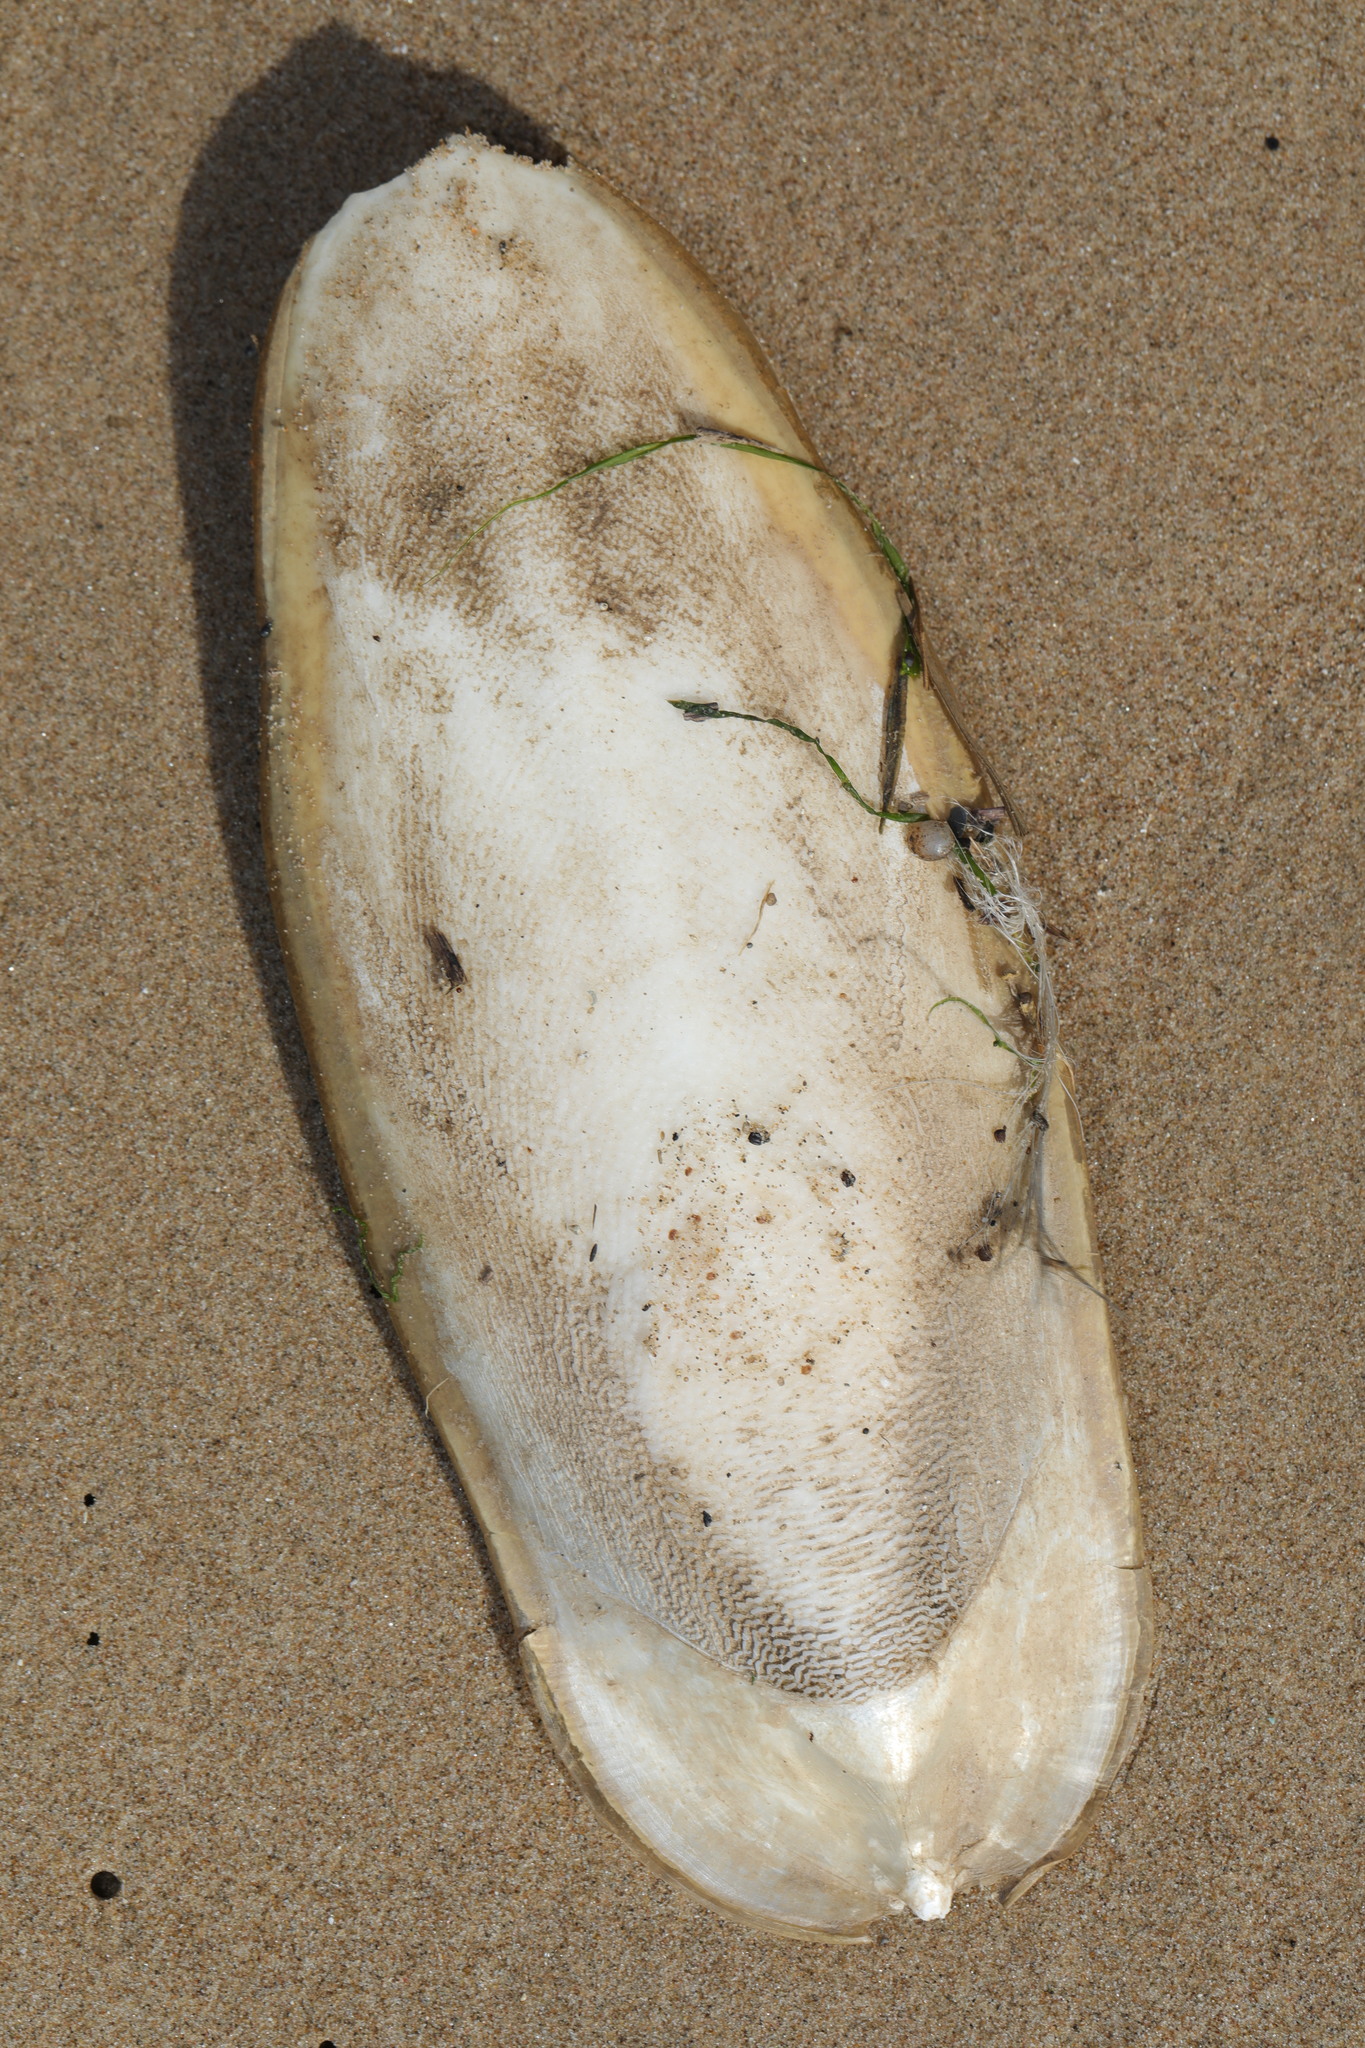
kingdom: Animalia
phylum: Mollusca
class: Cephalopoda
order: Sepiida
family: Sepiidae
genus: Sepia
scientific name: Sepia officinalis
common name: Common cuttlefish
